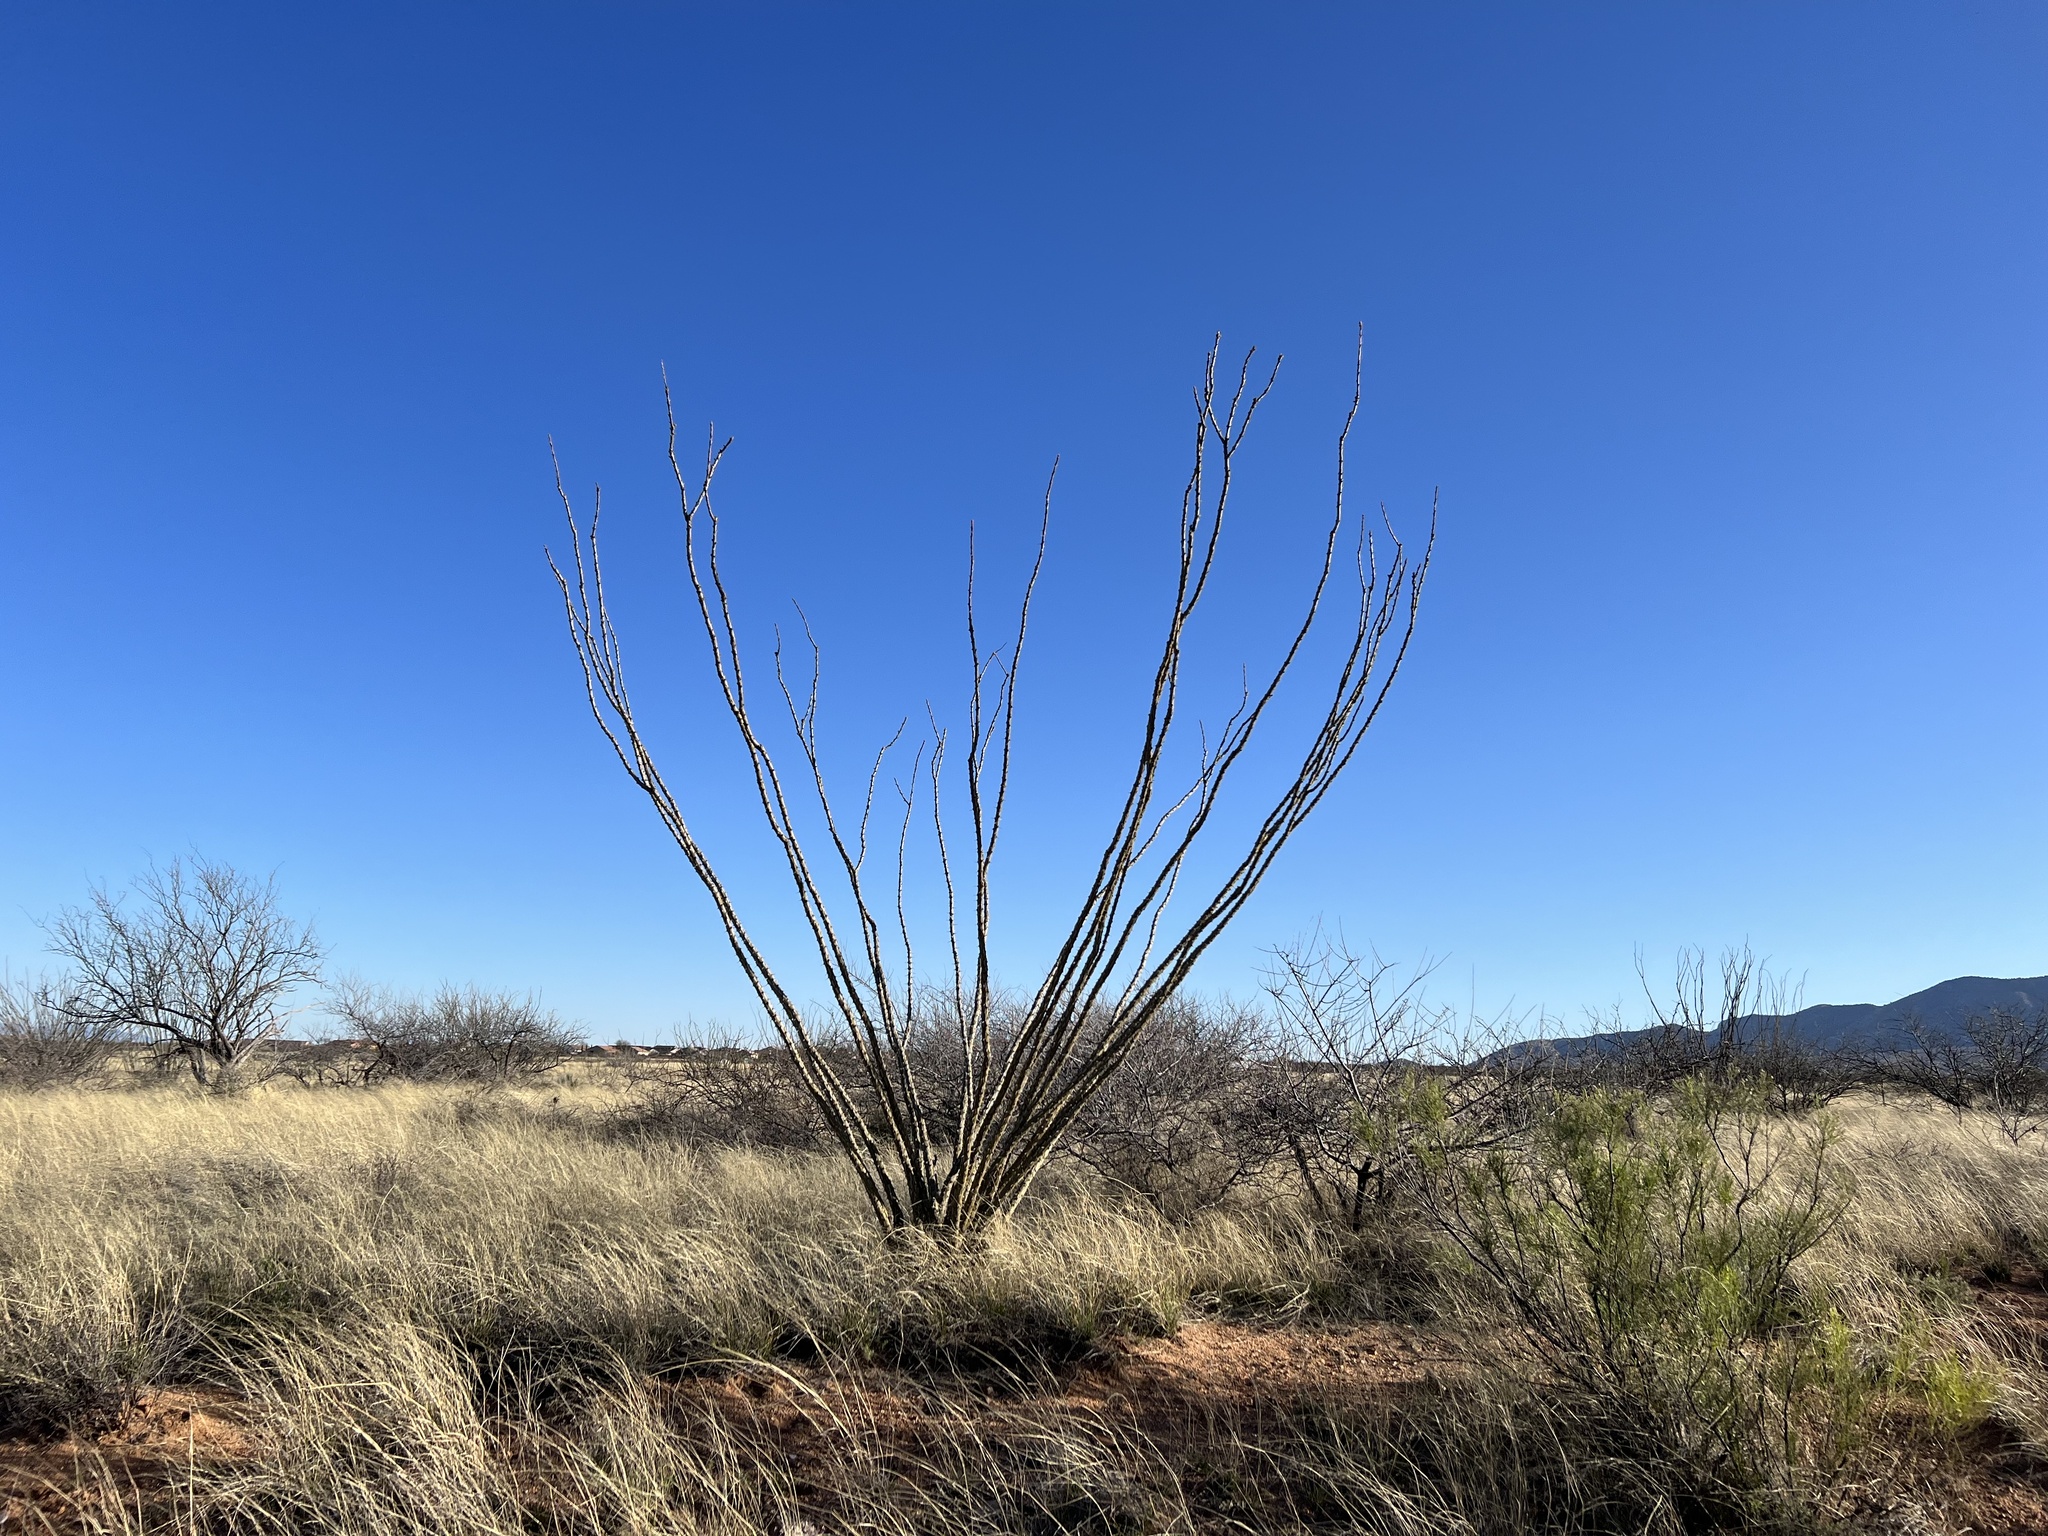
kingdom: Plantae
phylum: Tracheophyta
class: Magnoliopsida
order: Ericales
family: Fouquieriaceae
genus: Fouquieria
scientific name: Fouquieria splendens
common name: Vine-cactus
